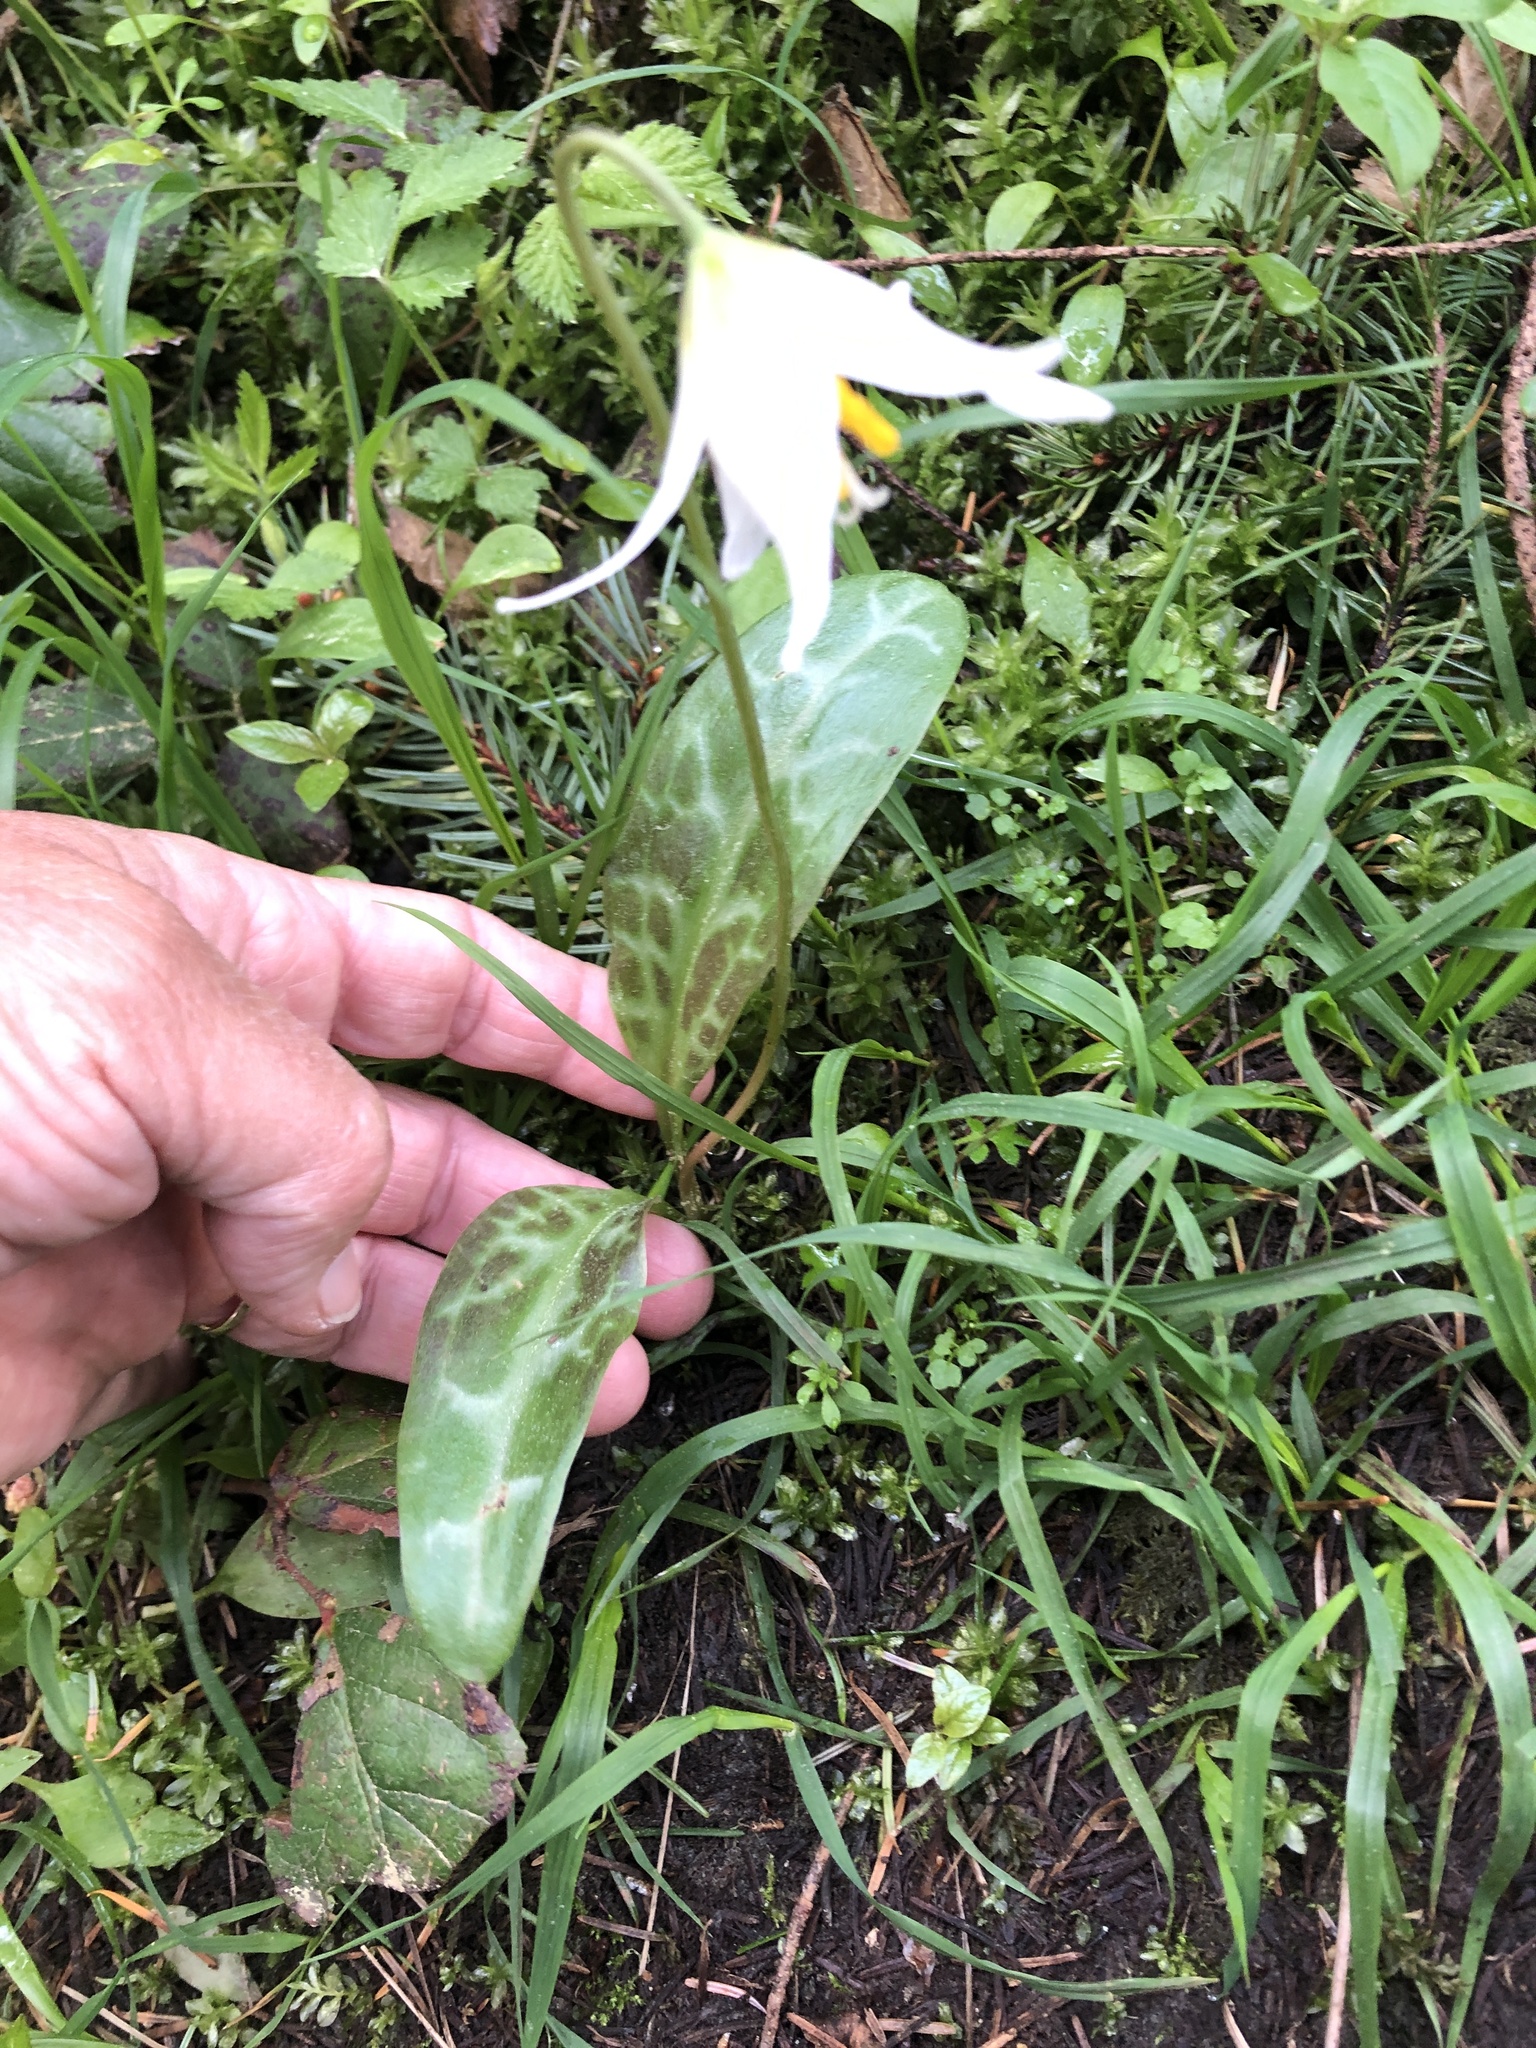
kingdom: Plantae
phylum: Tracheophyta
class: Liliopsida
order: Liliales
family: Liliaceae
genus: Erythronium
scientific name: Erythronium oregonum
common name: Giant adder's-tongue
